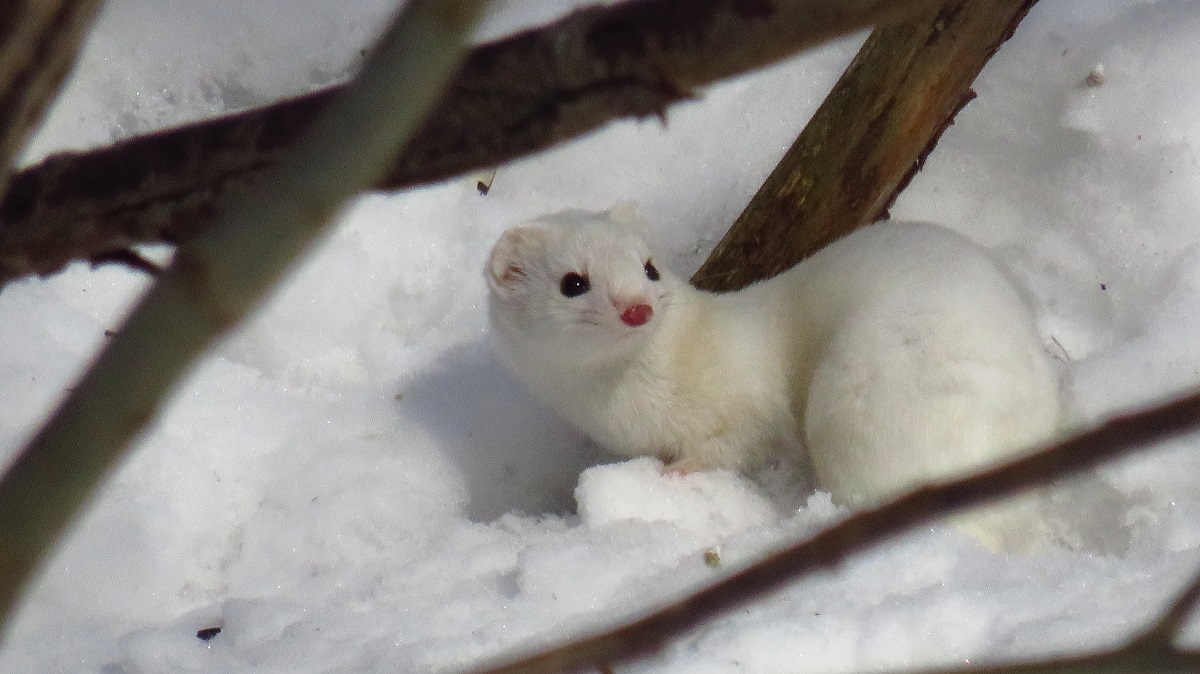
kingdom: Animalia
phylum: Chordata
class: Mammalia
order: Carnivora
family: Mustelidae
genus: Mustela
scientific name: Mustela nivalis
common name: Least weasel
